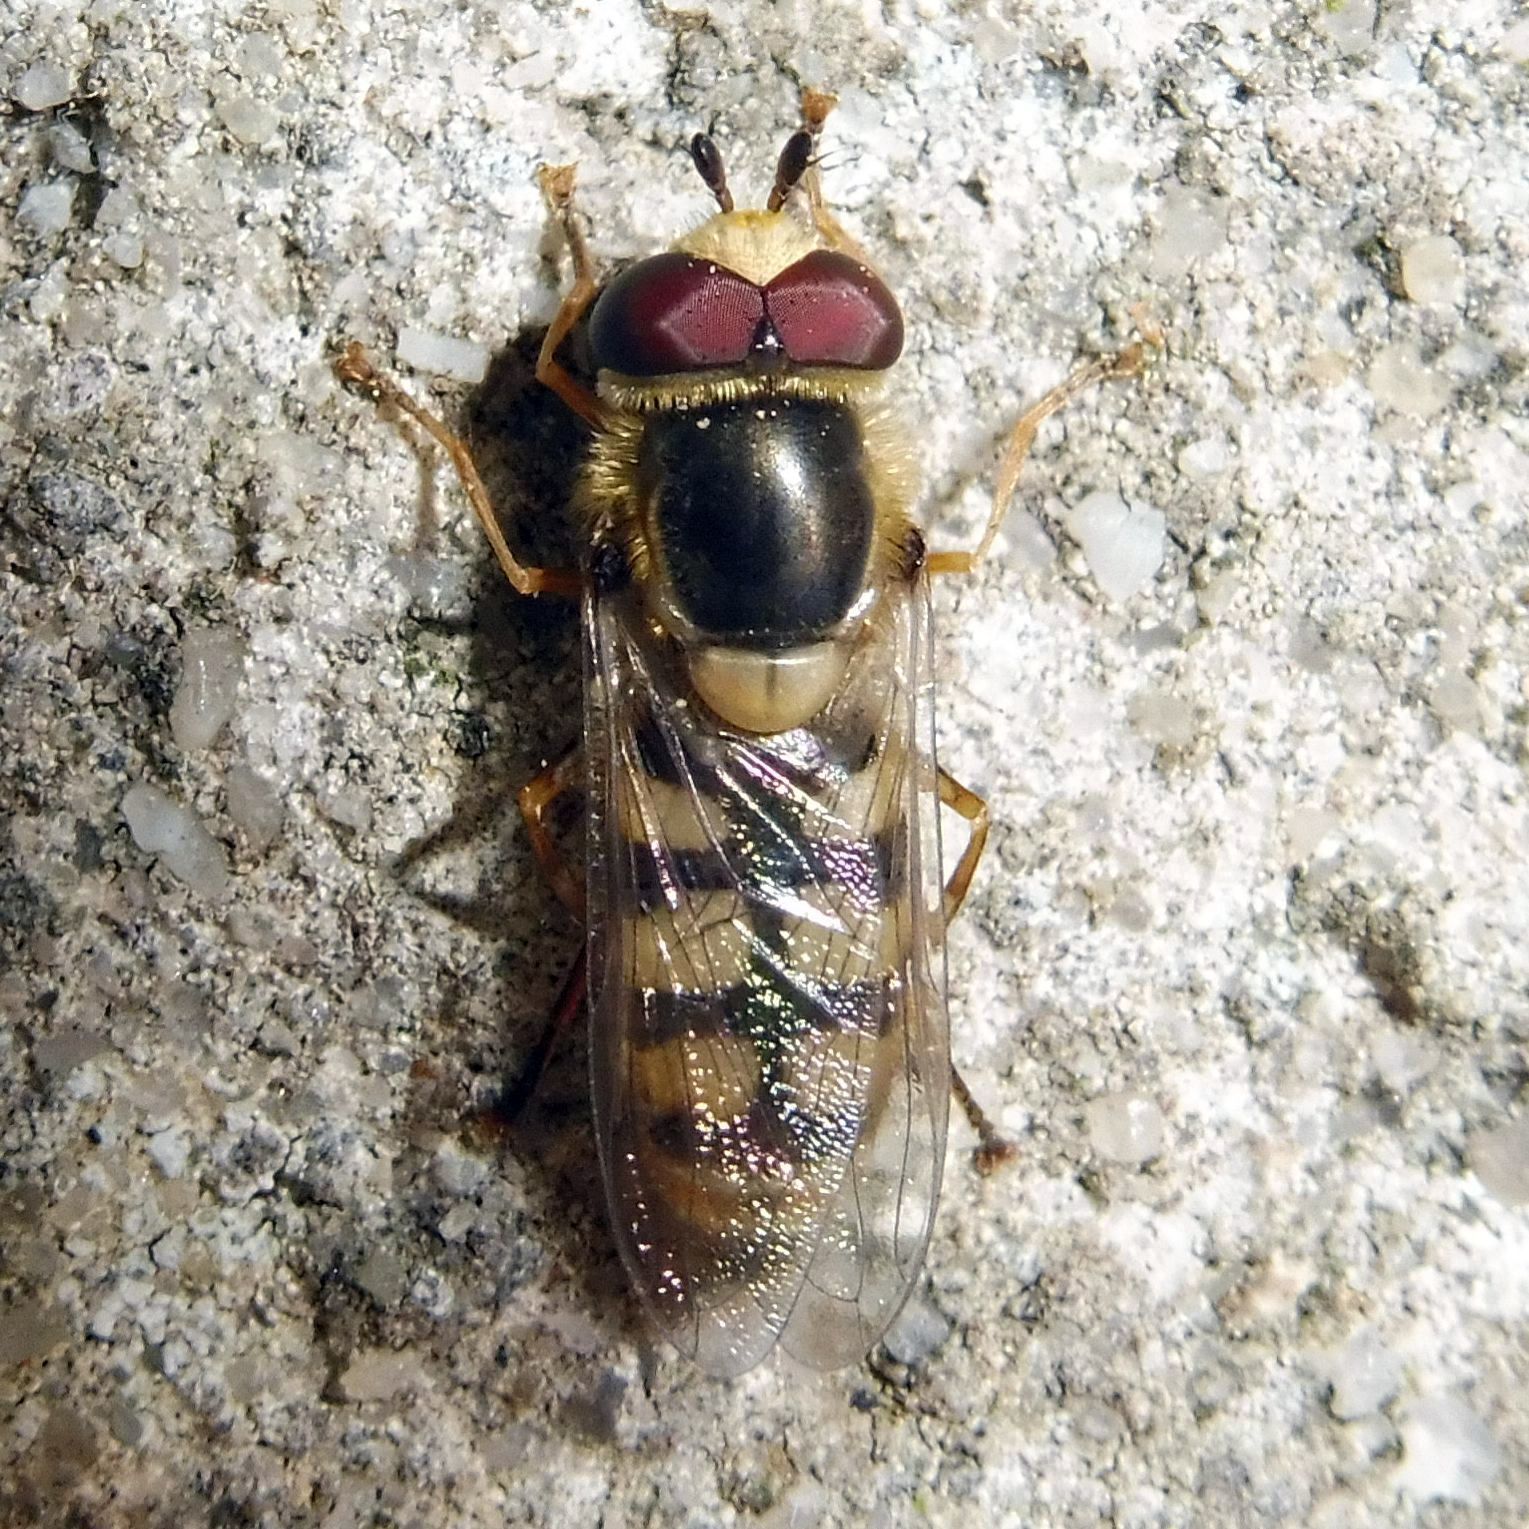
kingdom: Animalia
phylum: Arthropoda
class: Insecta
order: Diptera
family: Syrphidae
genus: Eupeodes
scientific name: Eupeodes corollae
